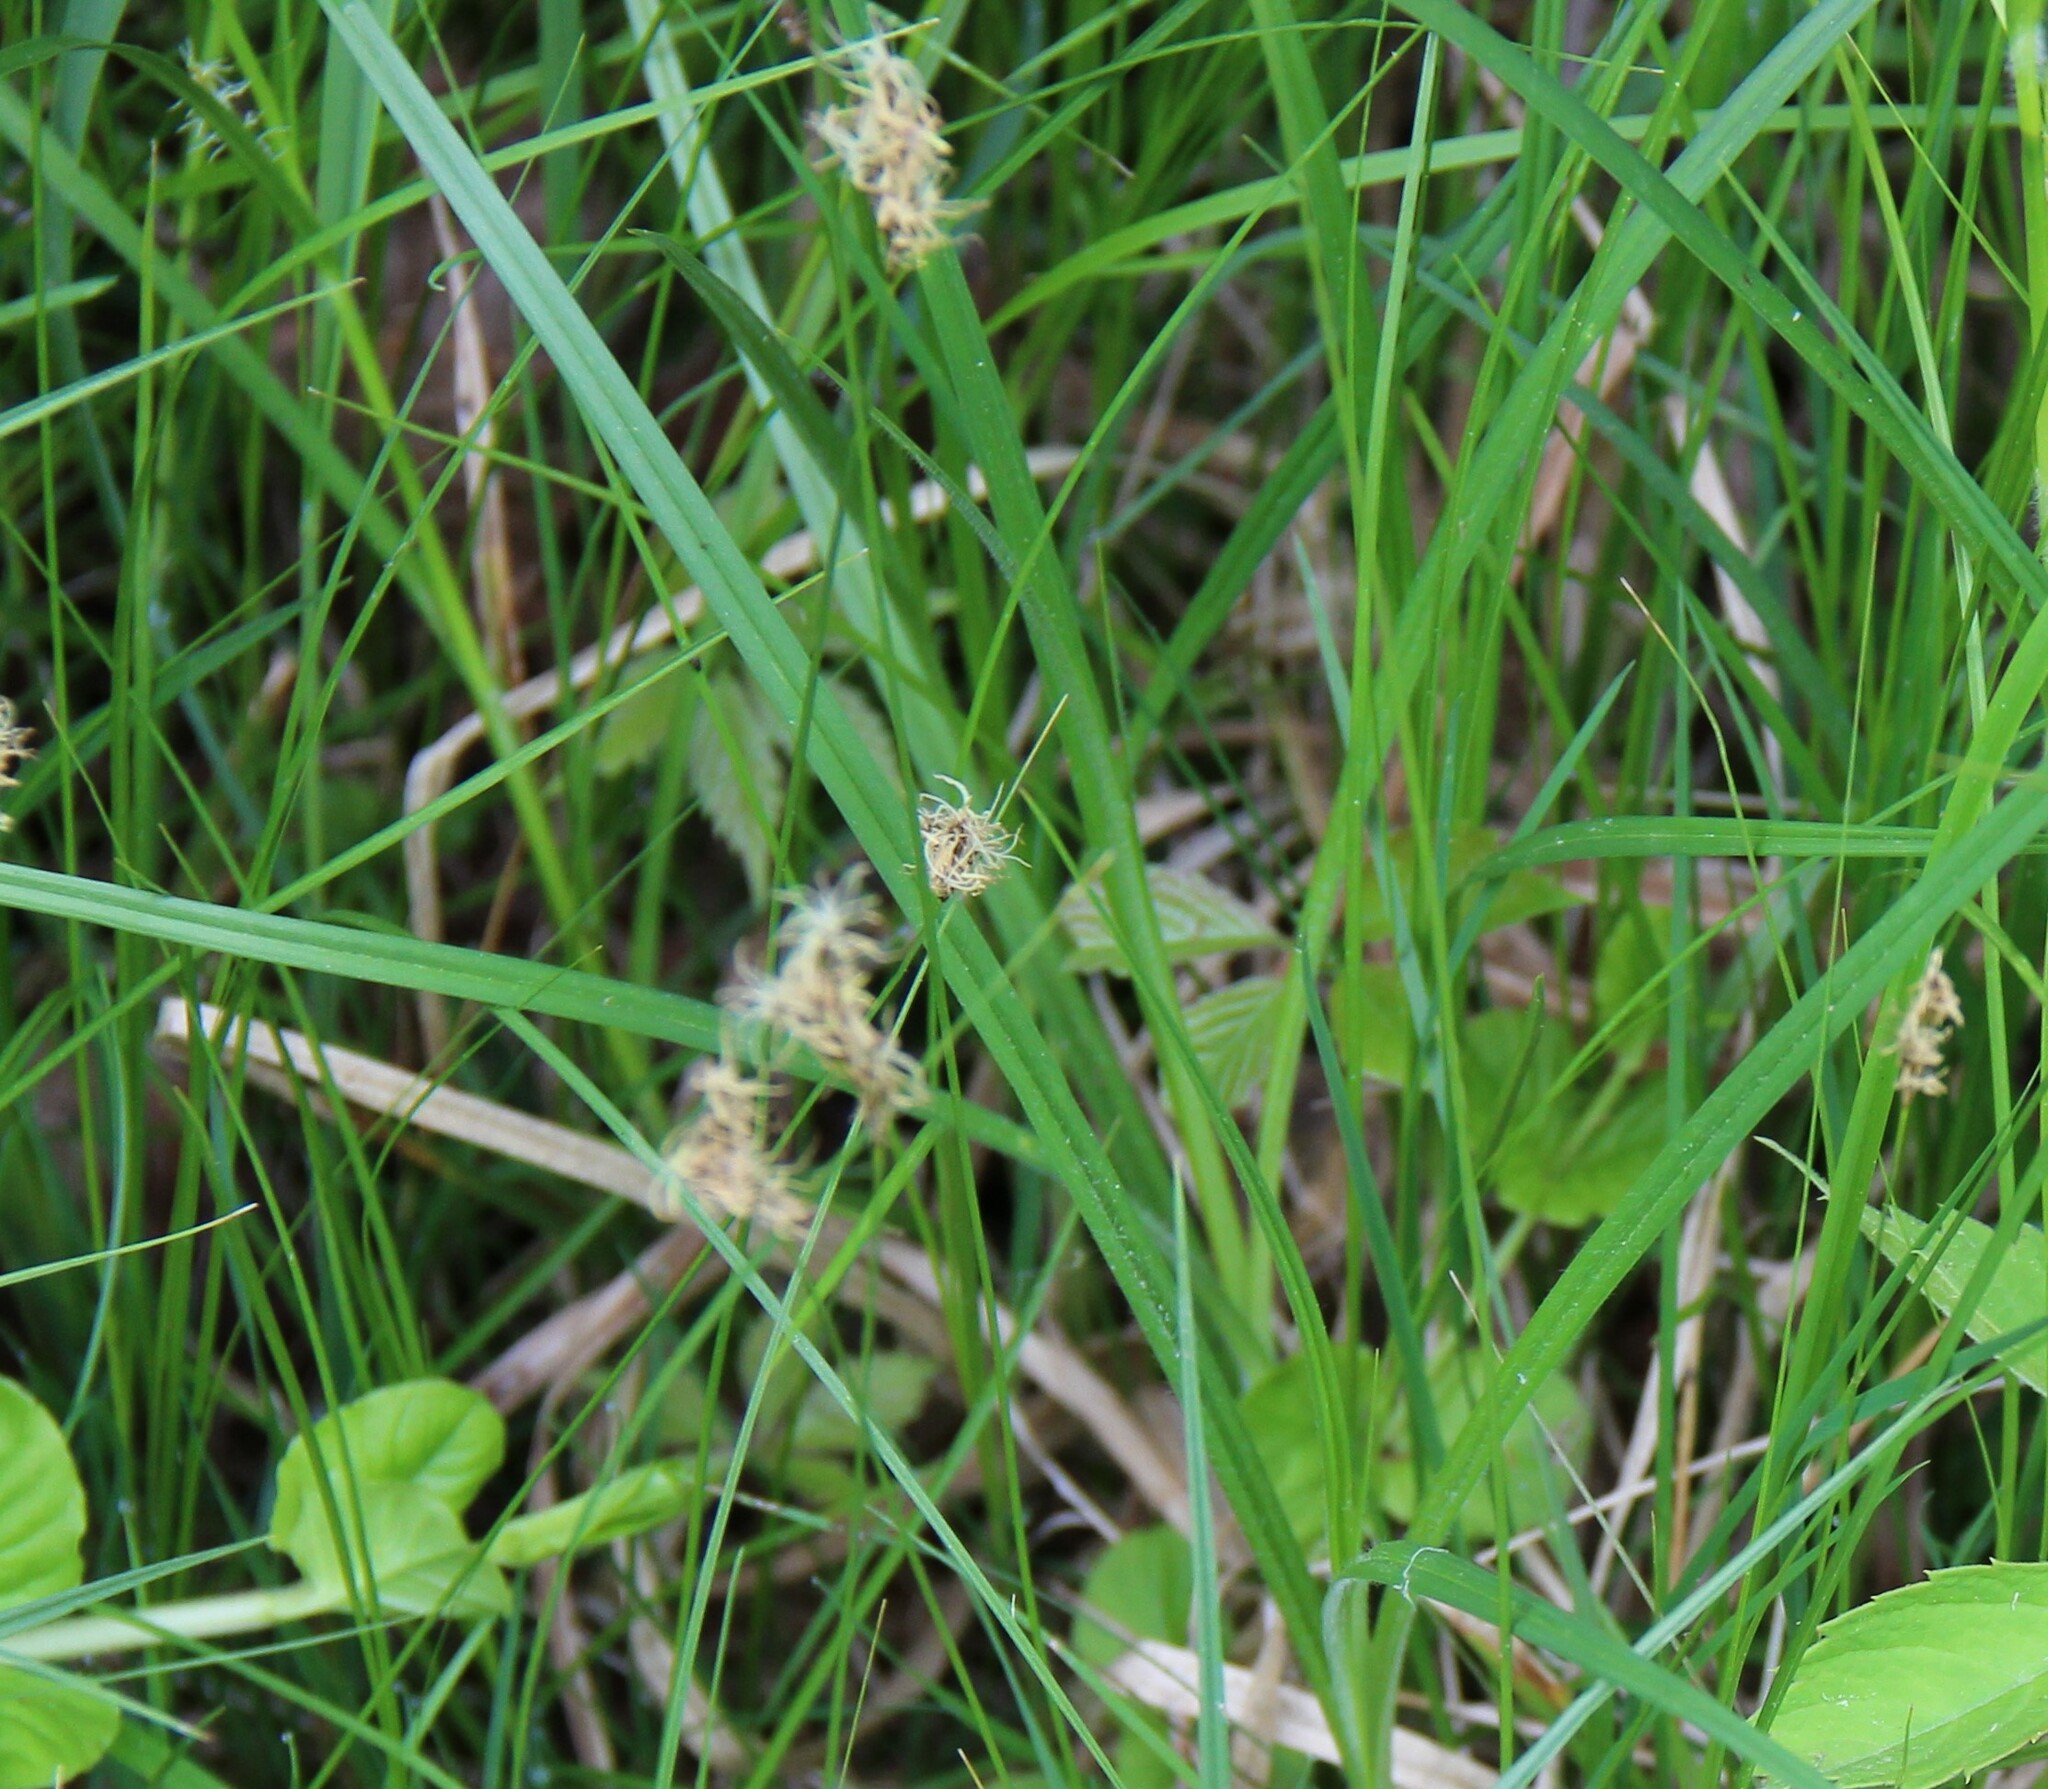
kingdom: Plantae
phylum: Tracheophyta
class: Liliopsida
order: Poales
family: Cyperaceae
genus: Carex
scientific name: Carex praecox
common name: Early sedge
